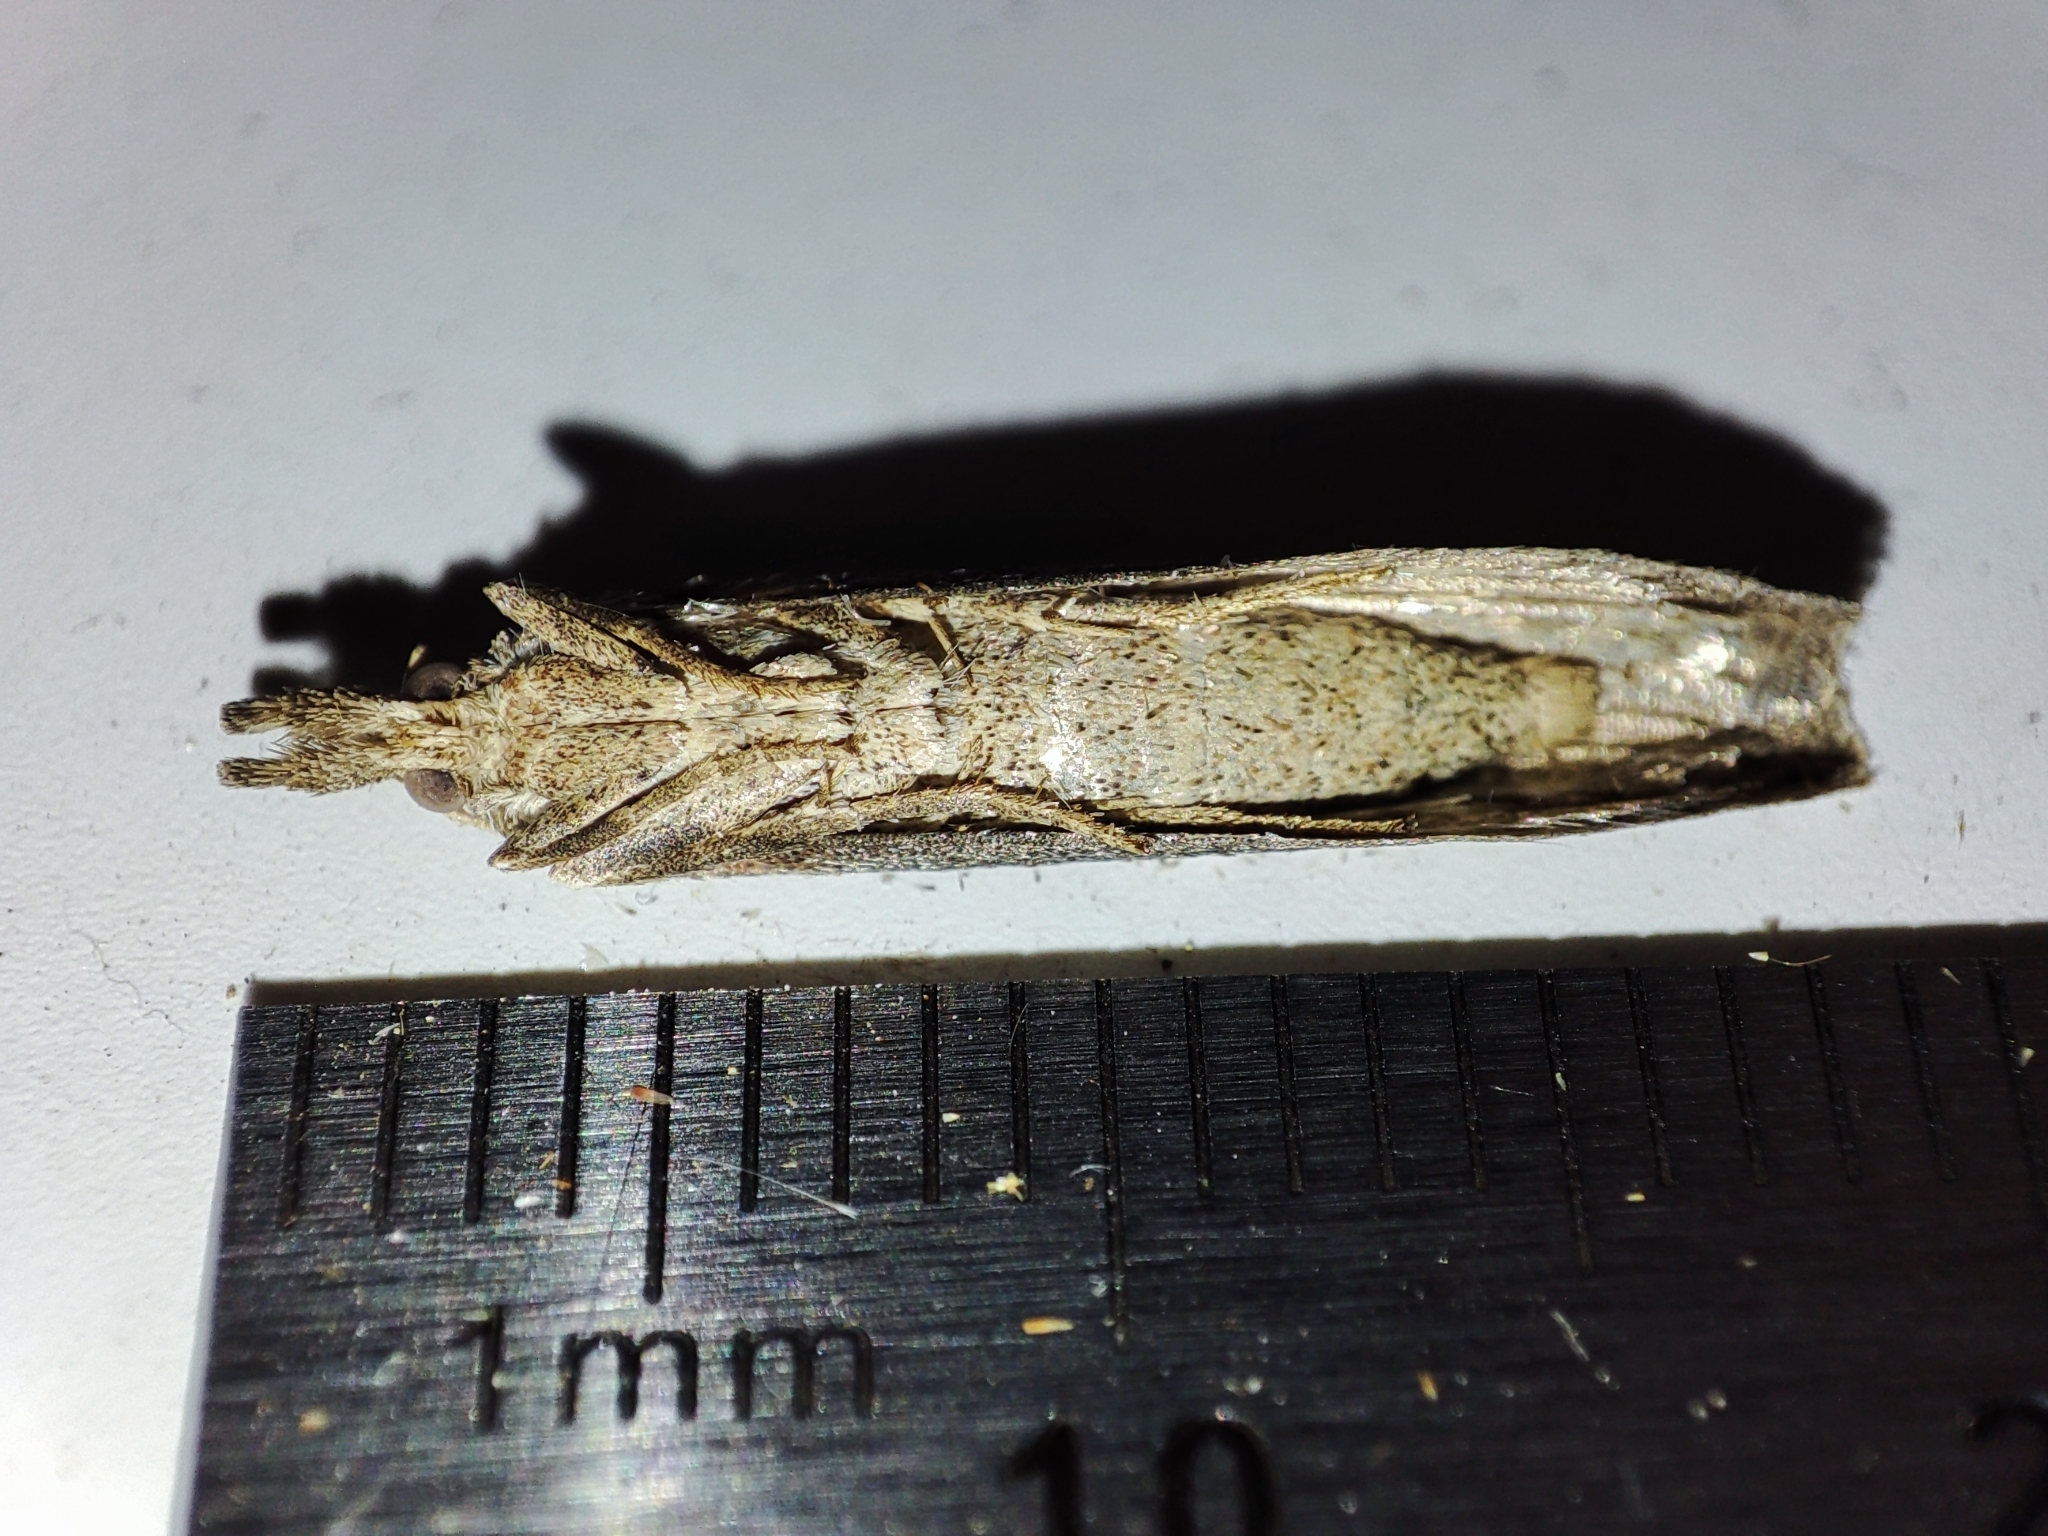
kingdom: Animalia
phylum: Arthropoda
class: Insecta
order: Lepidoptera
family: Pyralidae
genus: Aphomia
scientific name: Aphomia zelleri
